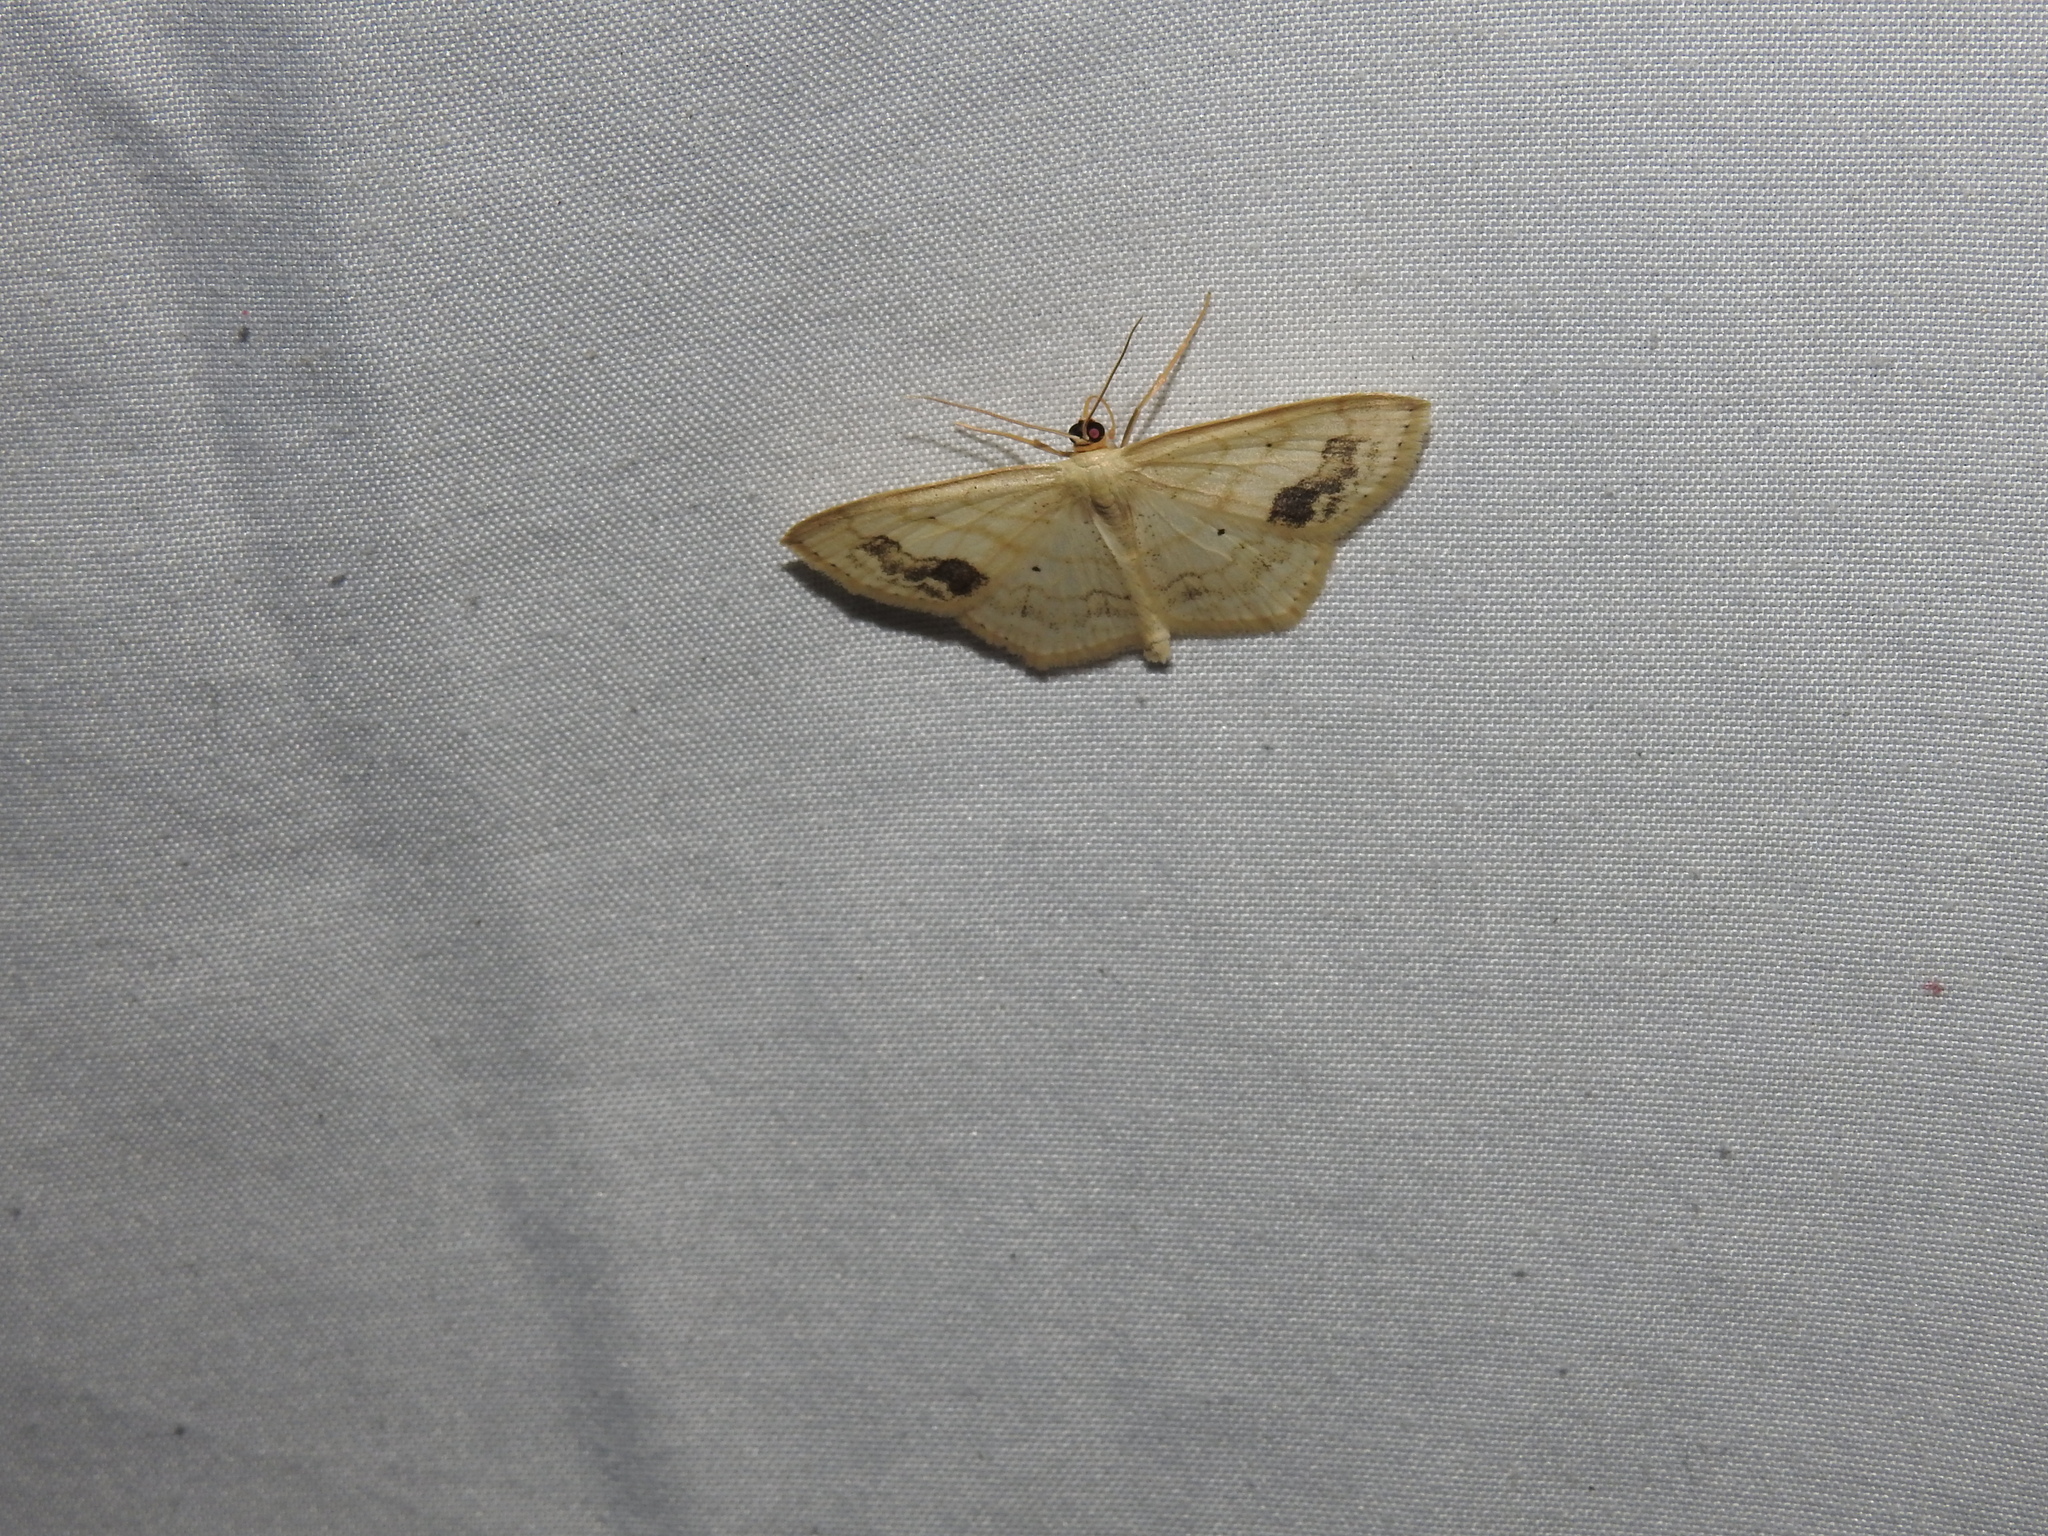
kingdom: Animalia
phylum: Arthropoda
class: Insecta
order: Lepidoptera
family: Geometridae
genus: Scopula
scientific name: Scopula limboundata
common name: Large lace border
